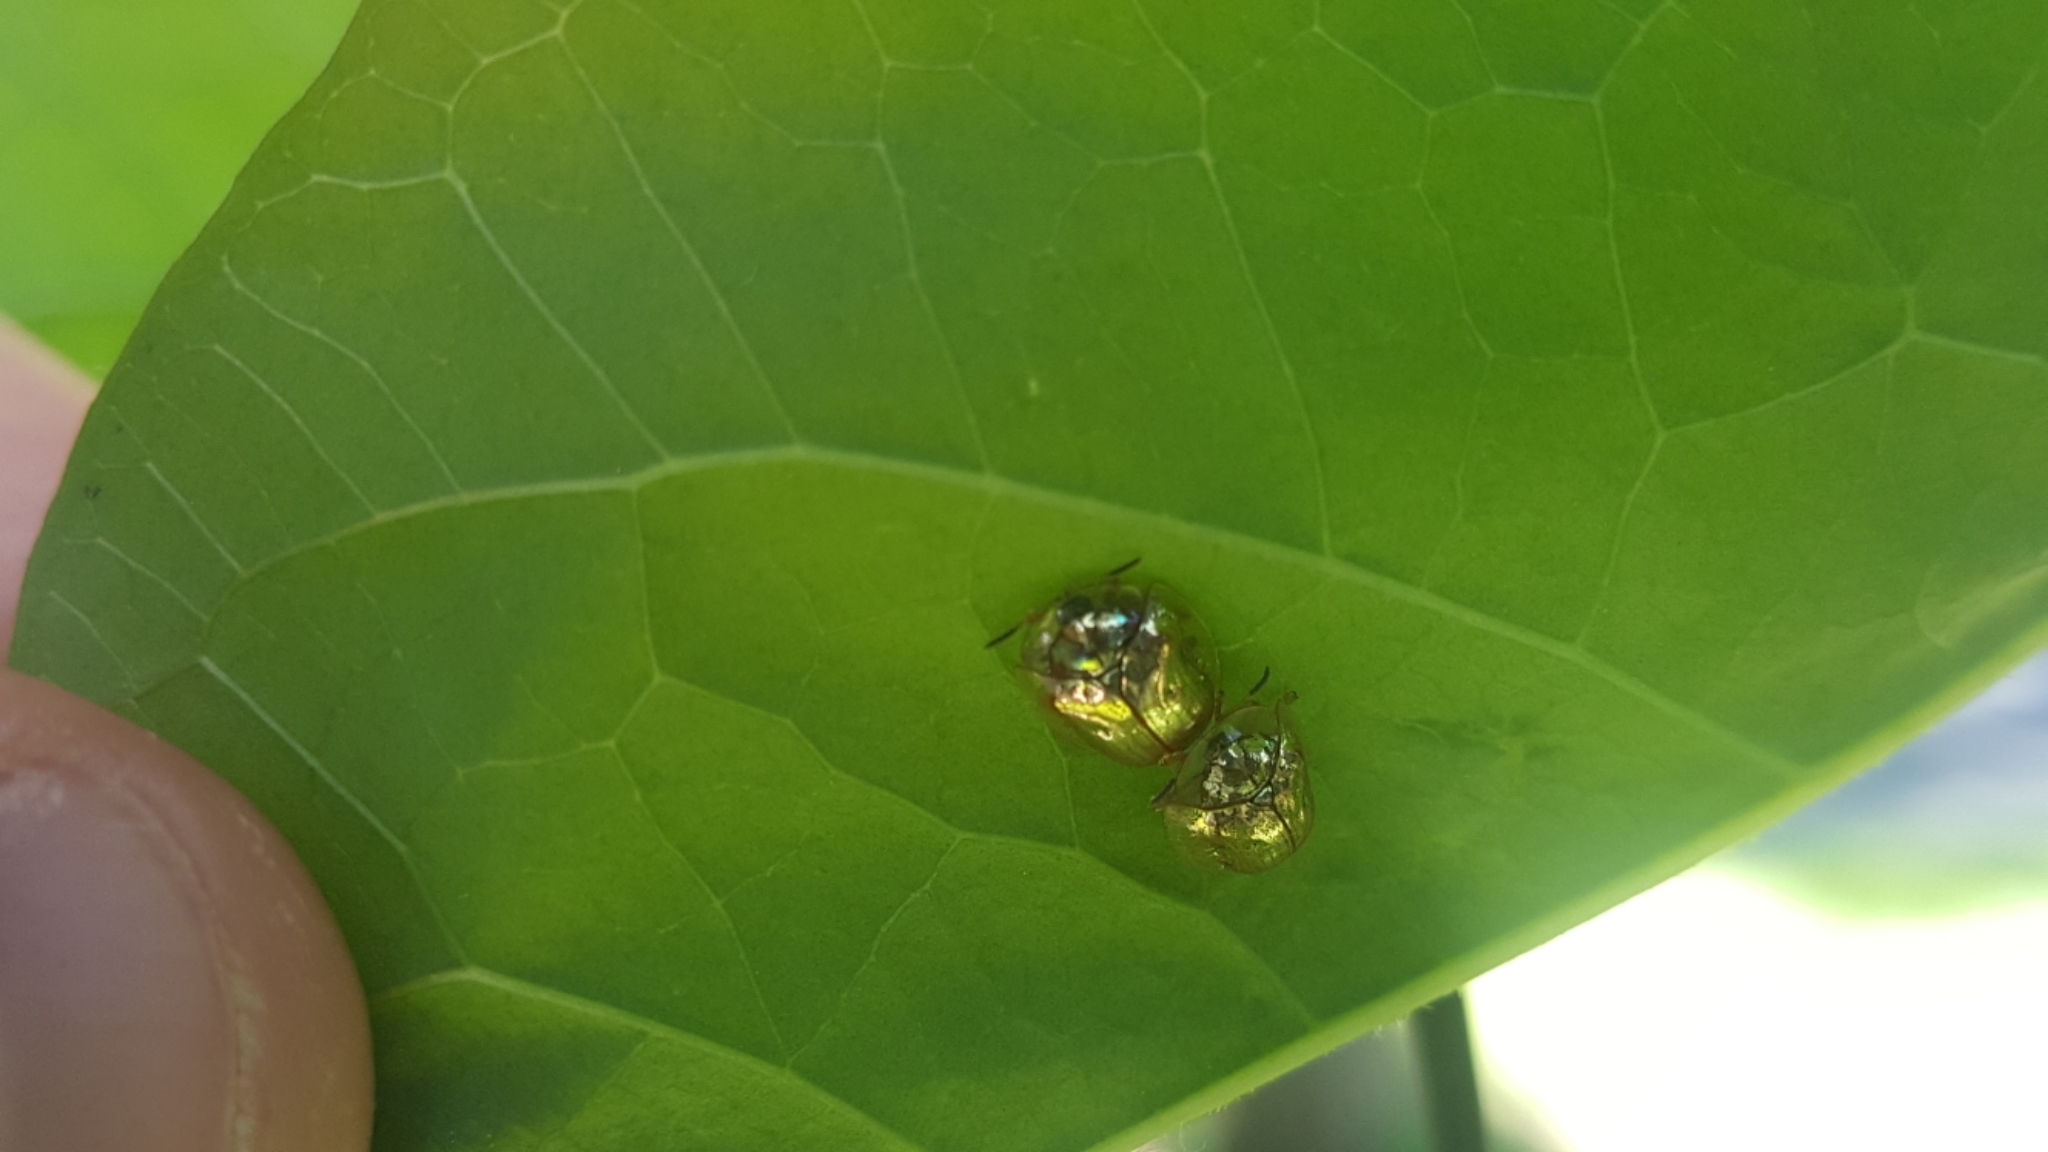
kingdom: Animalia
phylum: Arthropoda
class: Insecta
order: Coleoptera
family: Chrysomelidae
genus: Charidotella
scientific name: Charidotella sexpunctata
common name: Golden tortoise beetle
